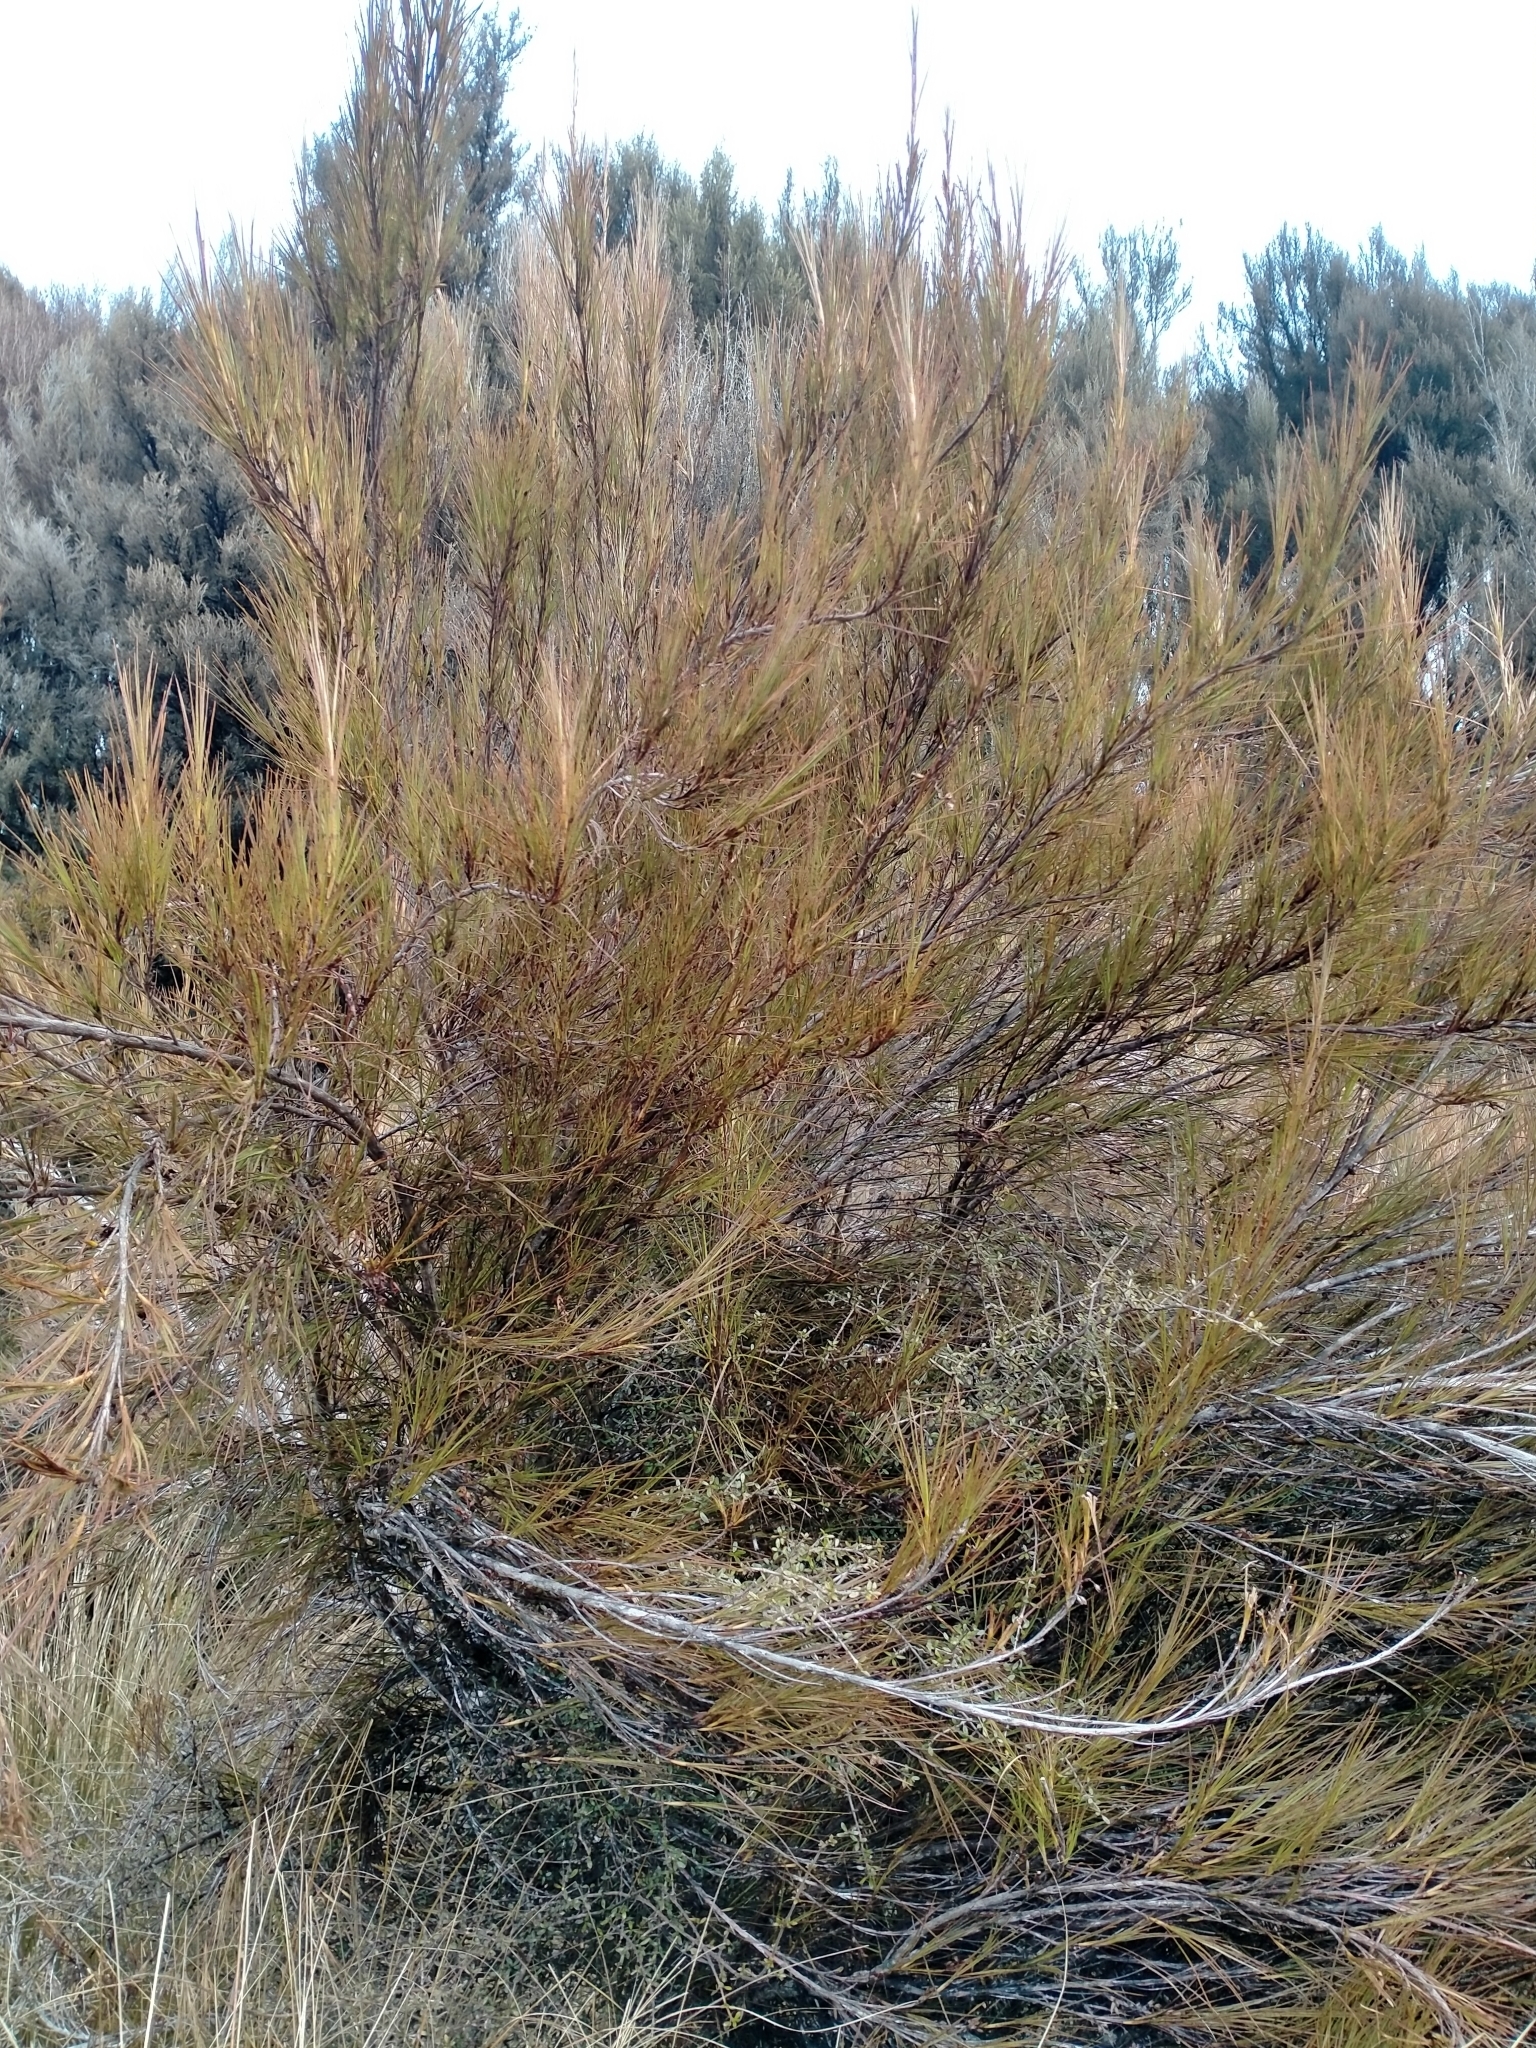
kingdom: Plantae
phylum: Tracheophyta
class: Magnoliopsida
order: Ericales
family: Ericaceae
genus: Dracophyllum
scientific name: Dracophyllum longifolium
